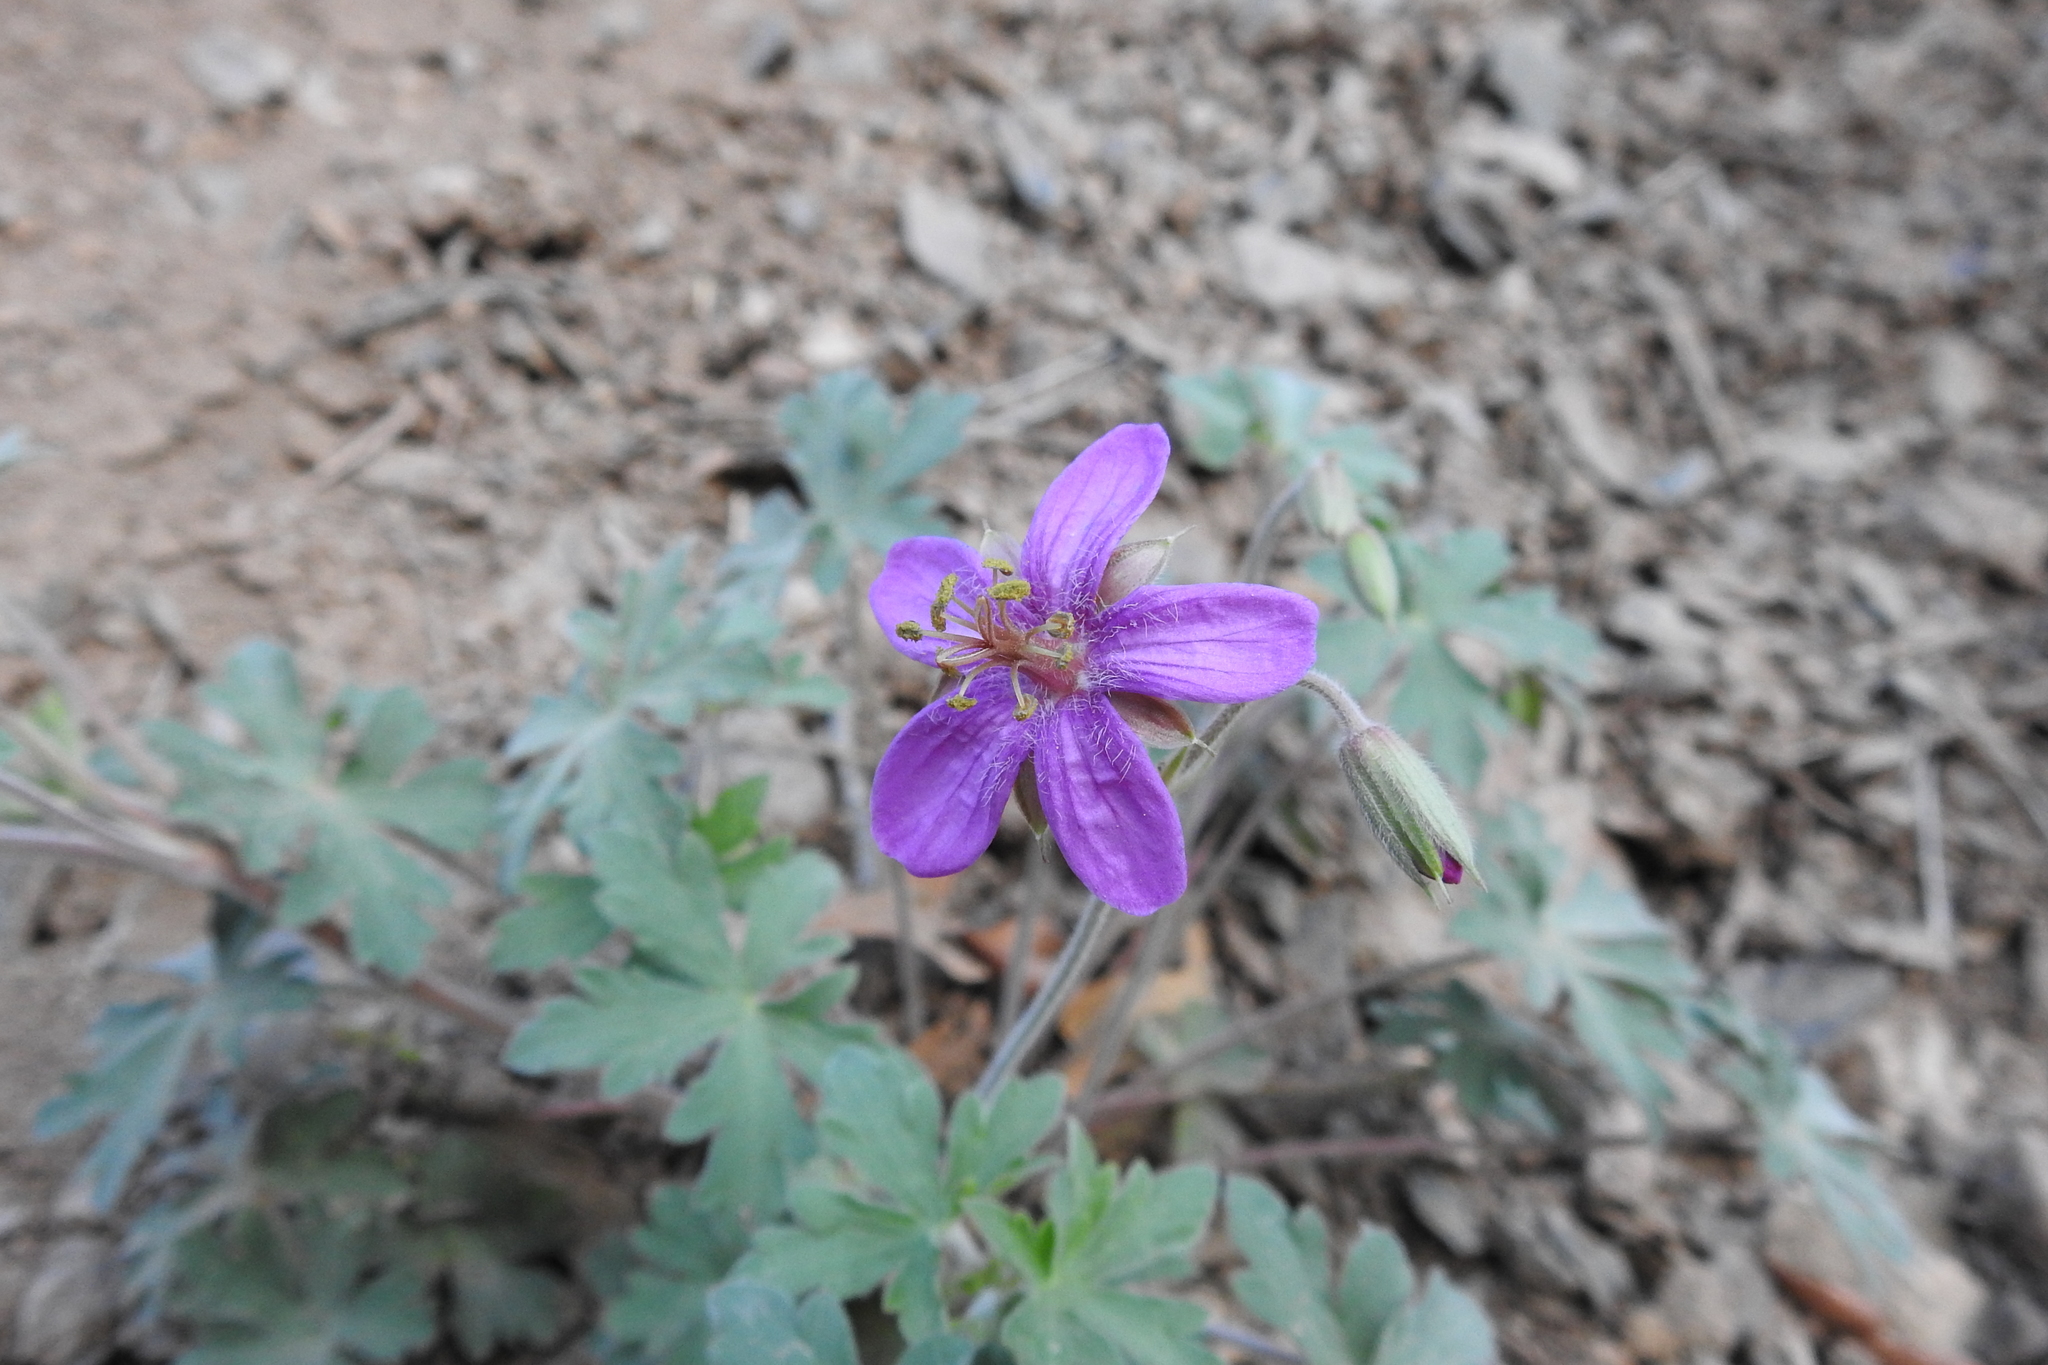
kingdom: Plantae
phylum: Tracheophyta
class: Magnoliopsida
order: Geraniales
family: Geraniaceae
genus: Geranium
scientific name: Geranium caespitosum
